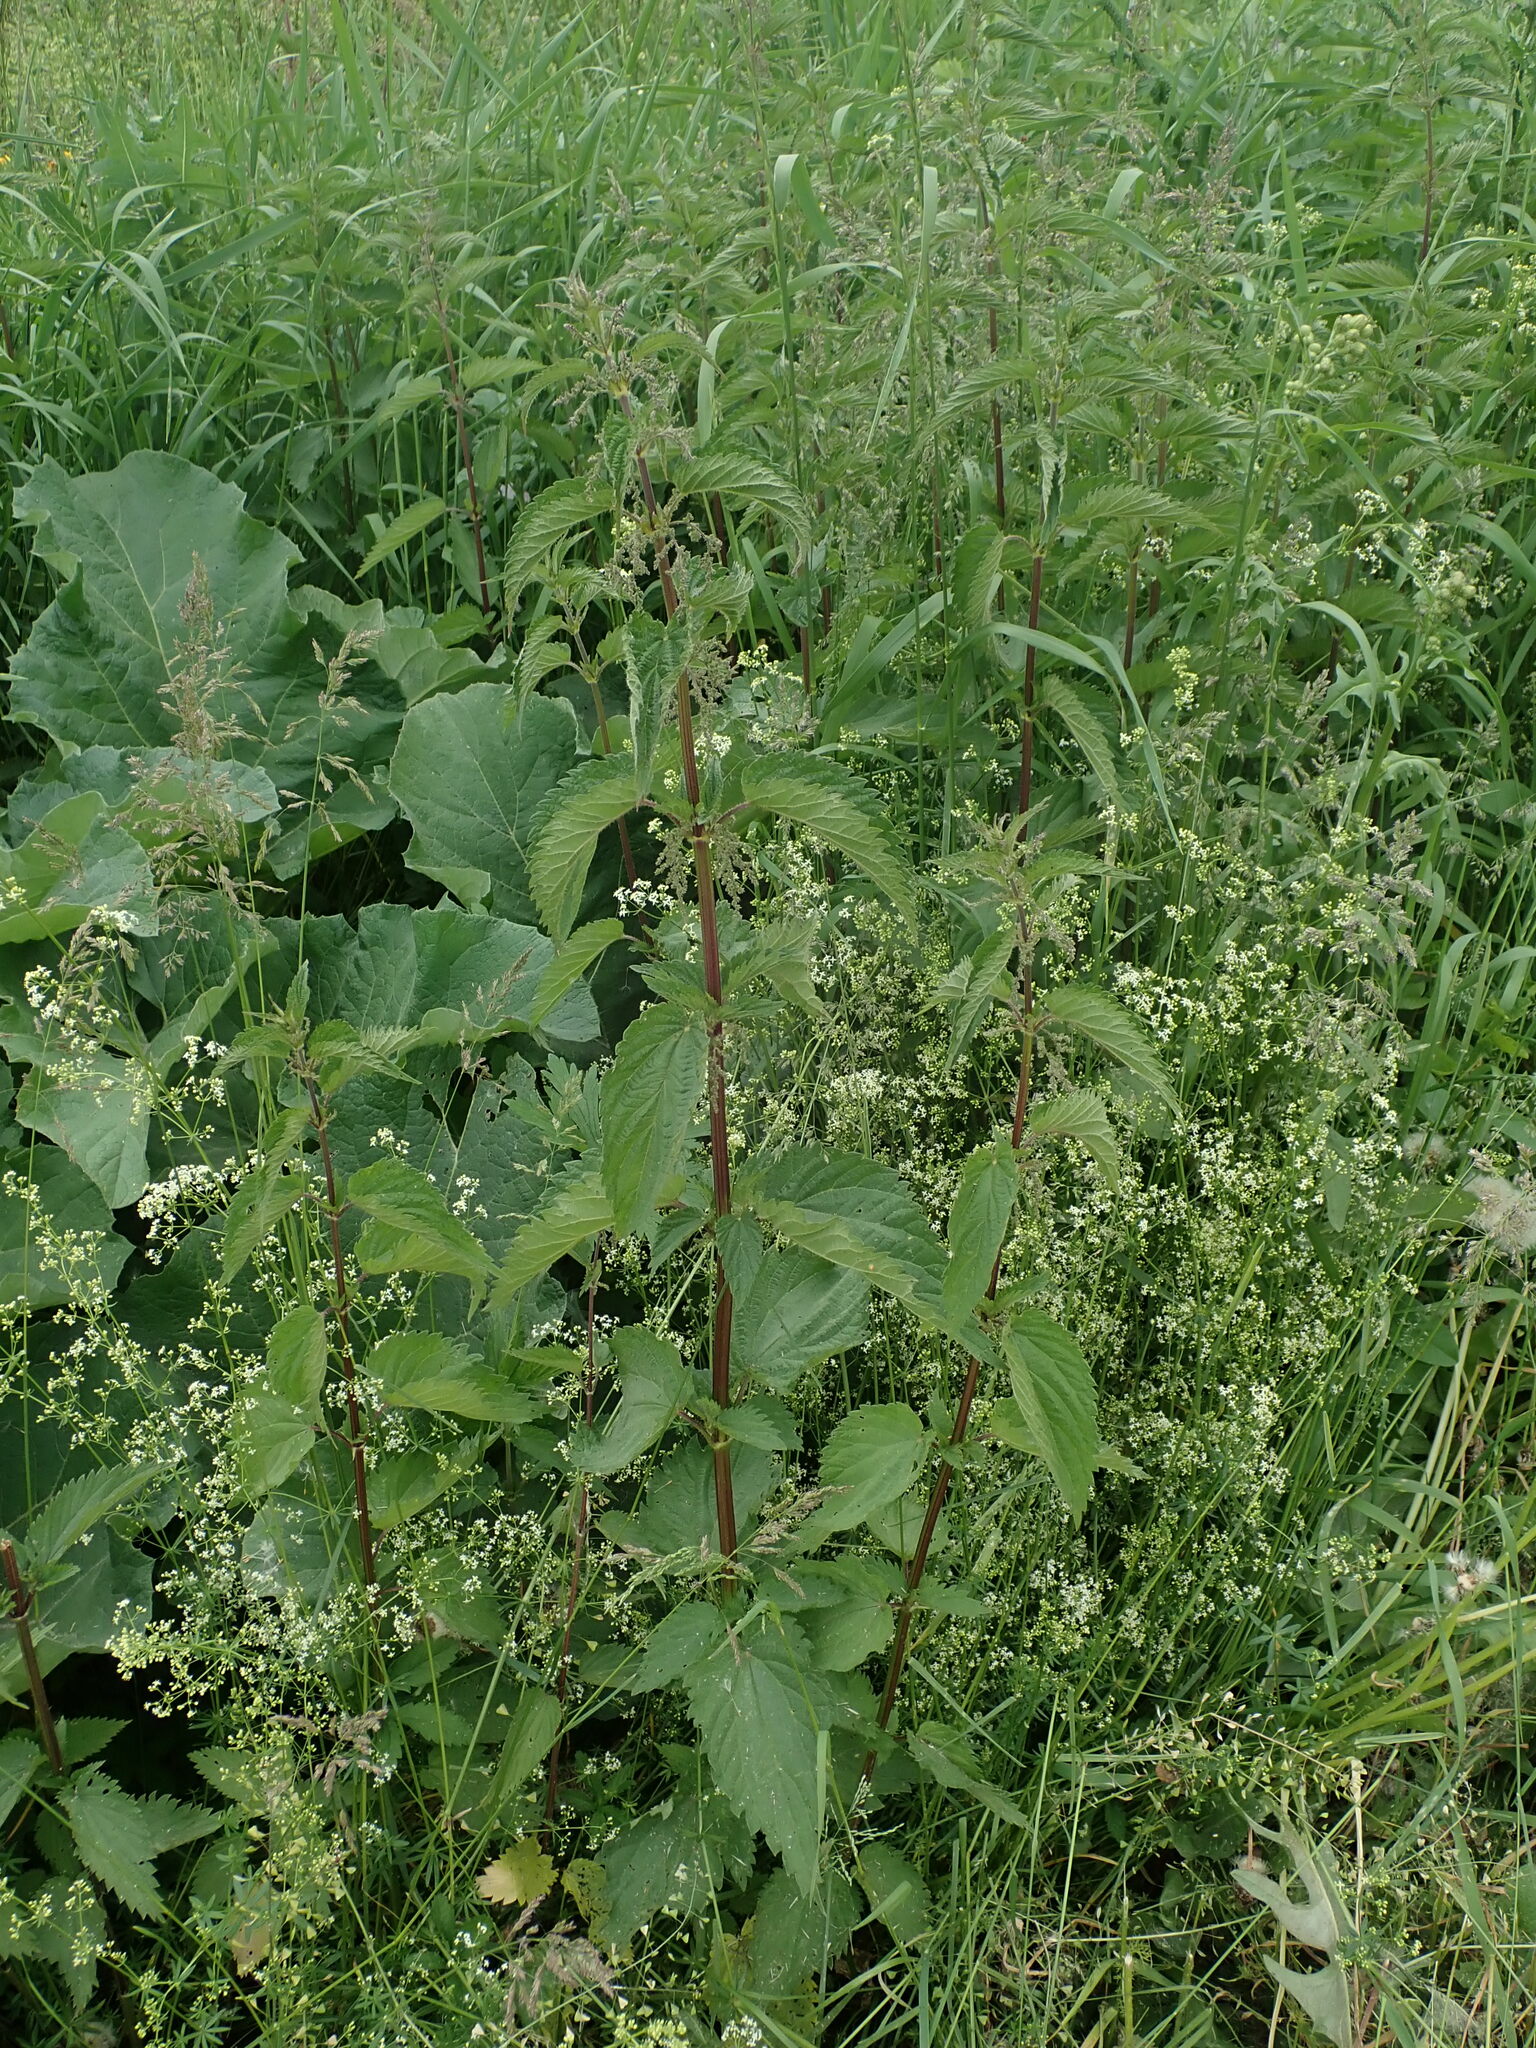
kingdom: Plantae
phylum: Tracheophyta
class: Magnoliopsida
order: Rosales
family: Urticaceae
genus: Urtica
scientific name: Urtica dioica
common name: Common nettle
